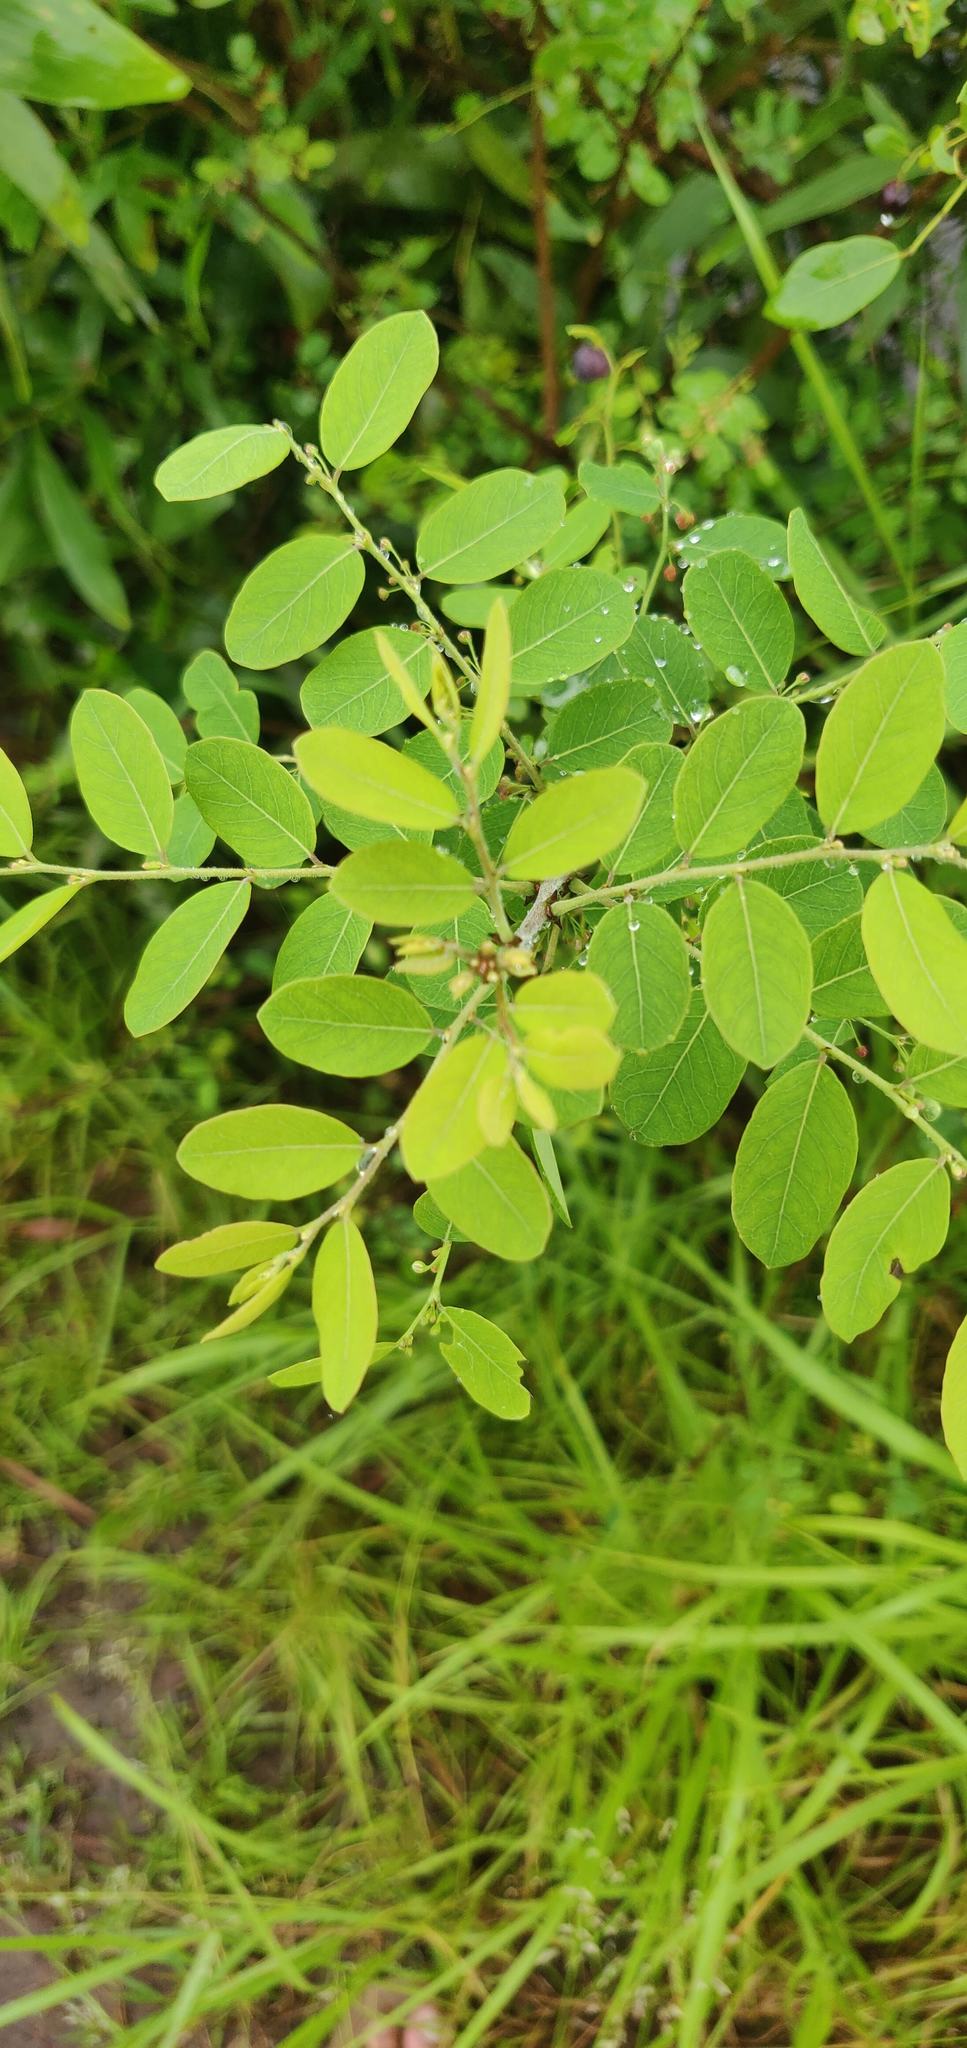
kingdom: Plantae
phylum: Tracheophyta
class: Magnoliopsida
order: Malpighiales
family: Phyllanthaceae
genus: Phyllanthus
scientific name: Phyllanthus reticulatus
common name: Potato bush
